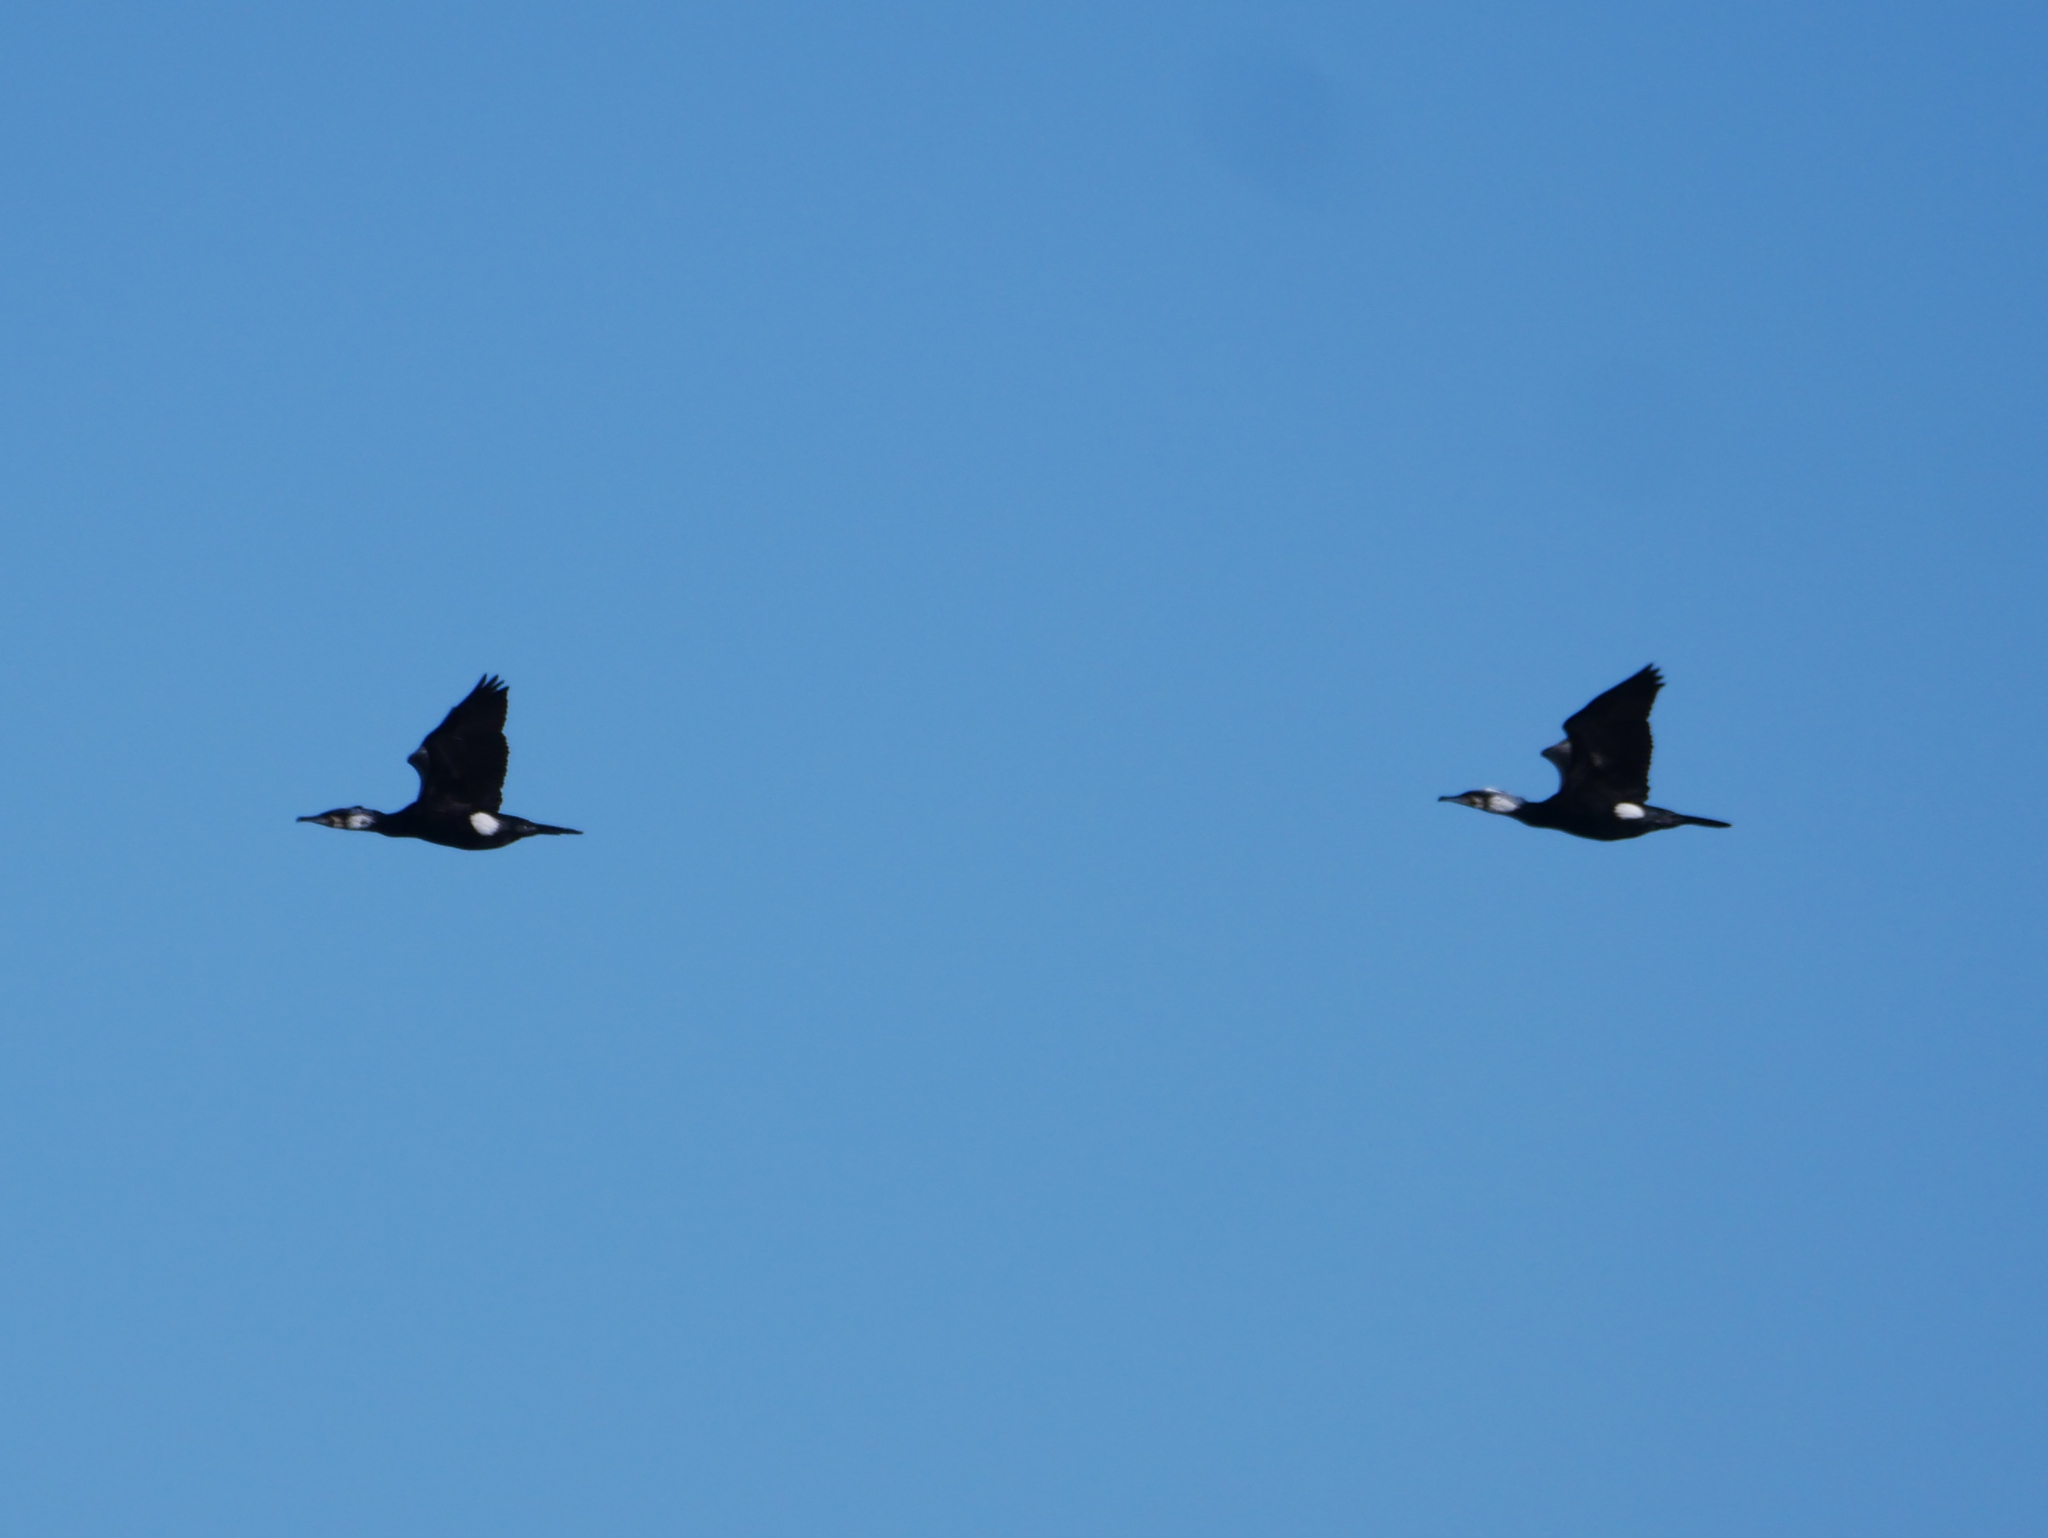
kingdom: Animalia
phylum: Chordata
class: Aves
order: Suliformes
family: Phalacrocoracidae
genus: Phalacrocorax
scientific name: Phalacrocorax carbo
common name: Great cormorant
